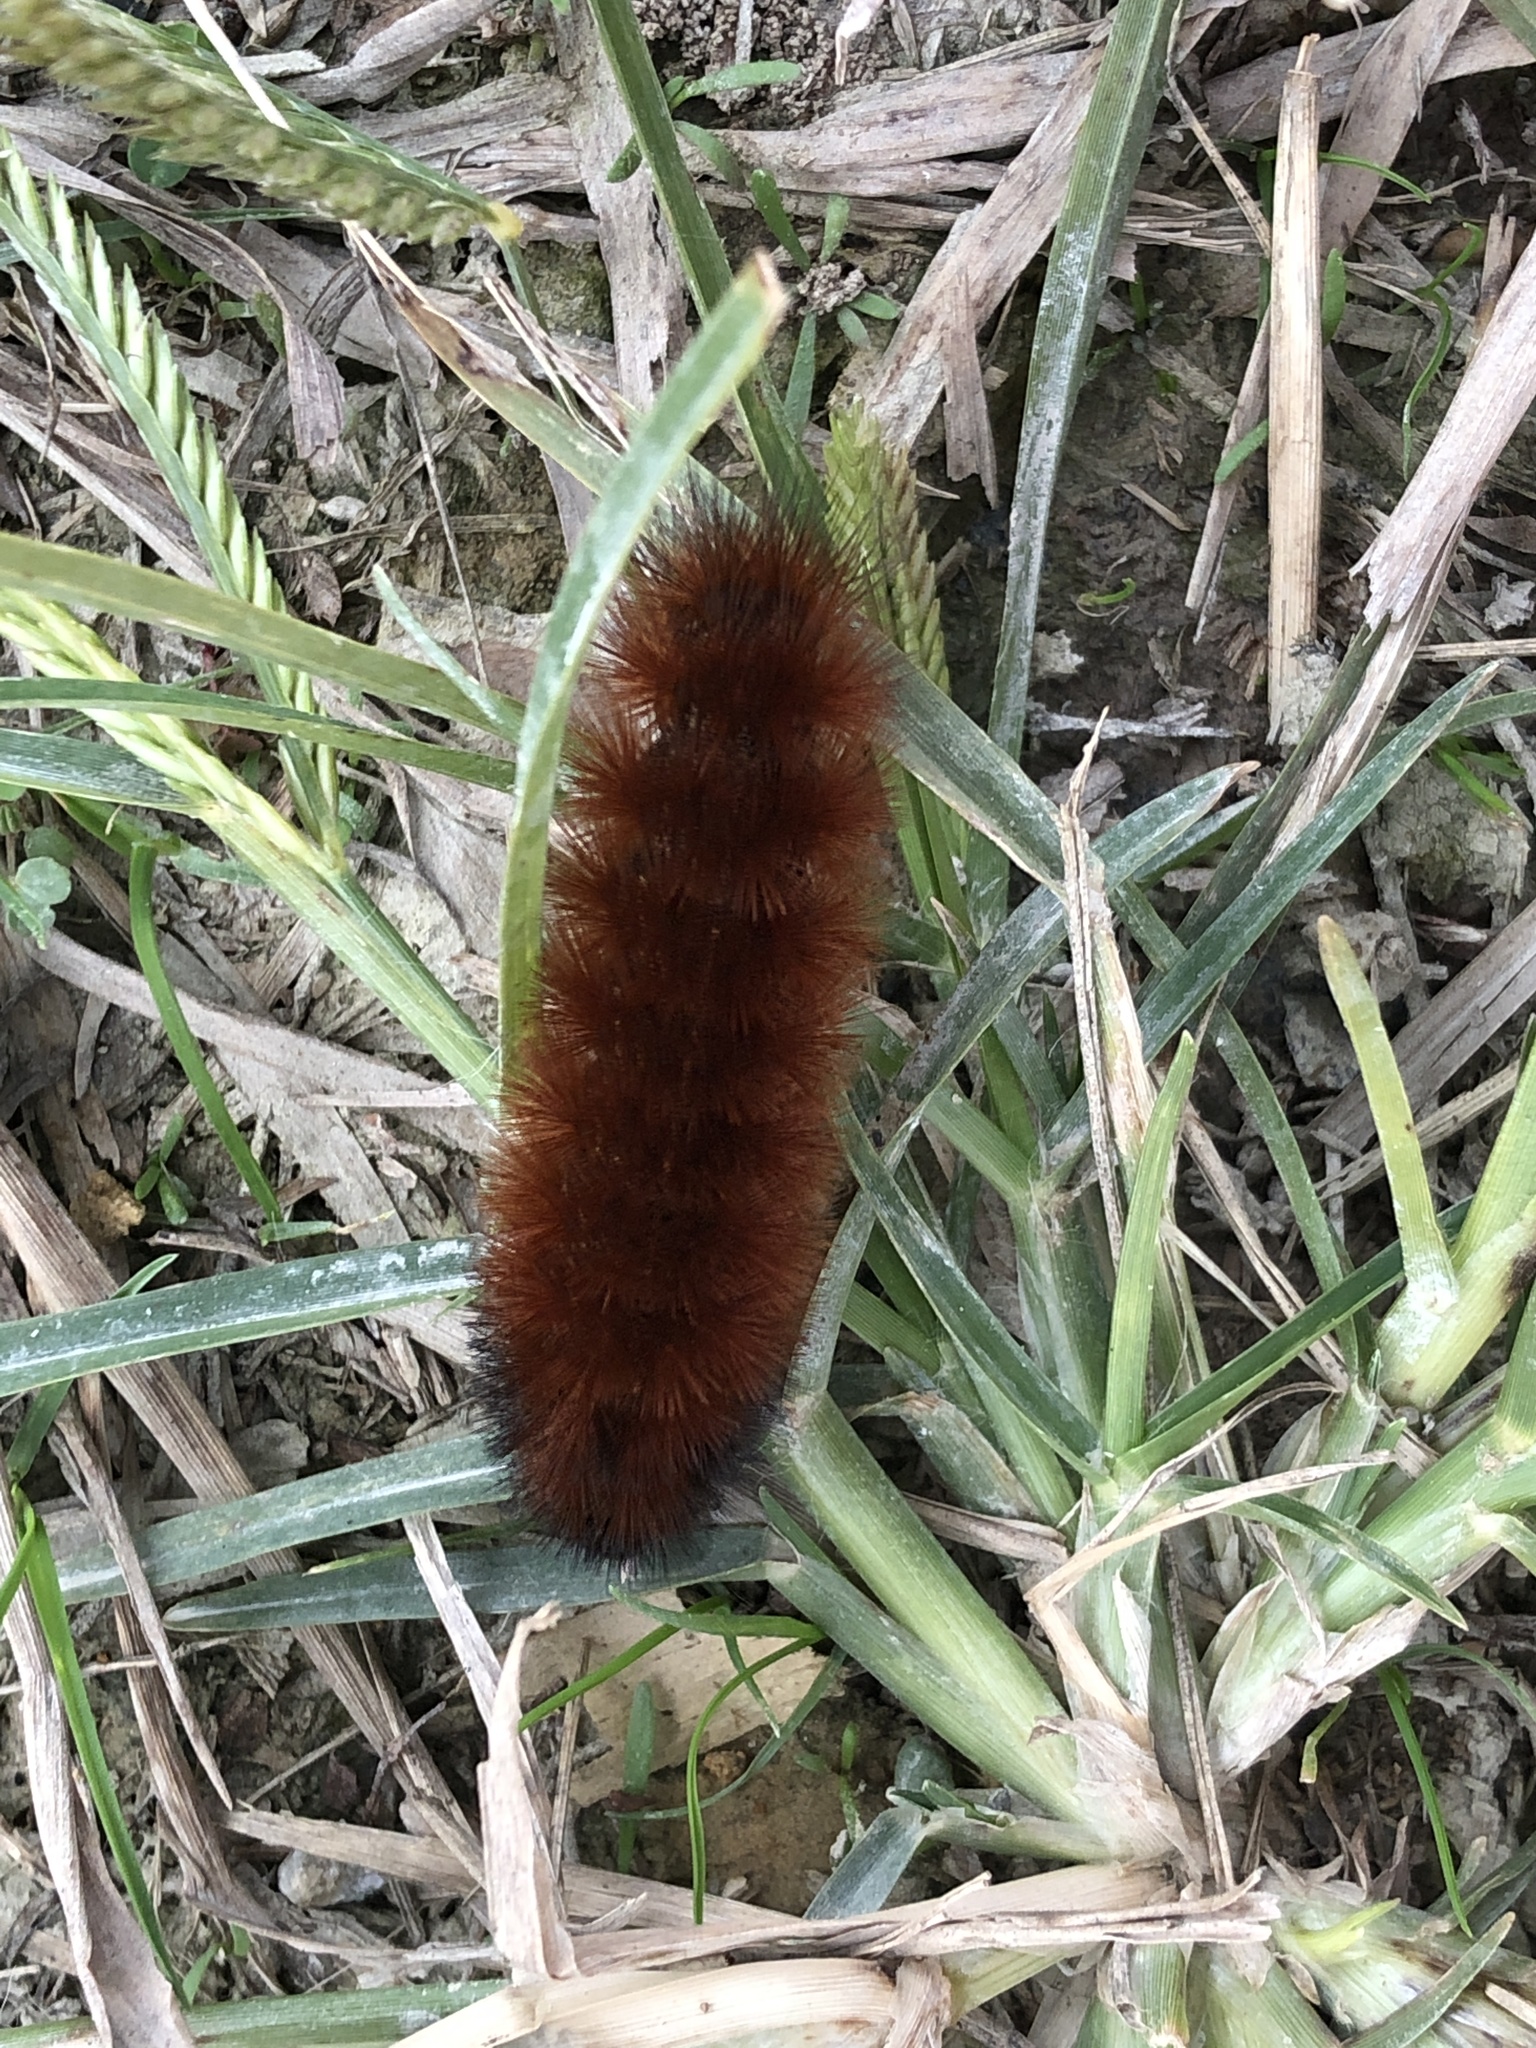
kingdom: Animalia
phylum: Arthropoda
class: Insecta
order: Lepidoptera
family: Erebidae
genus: Pyrrharctia
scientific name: Pyrrharctia isabella
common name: Isabella tiger moth
